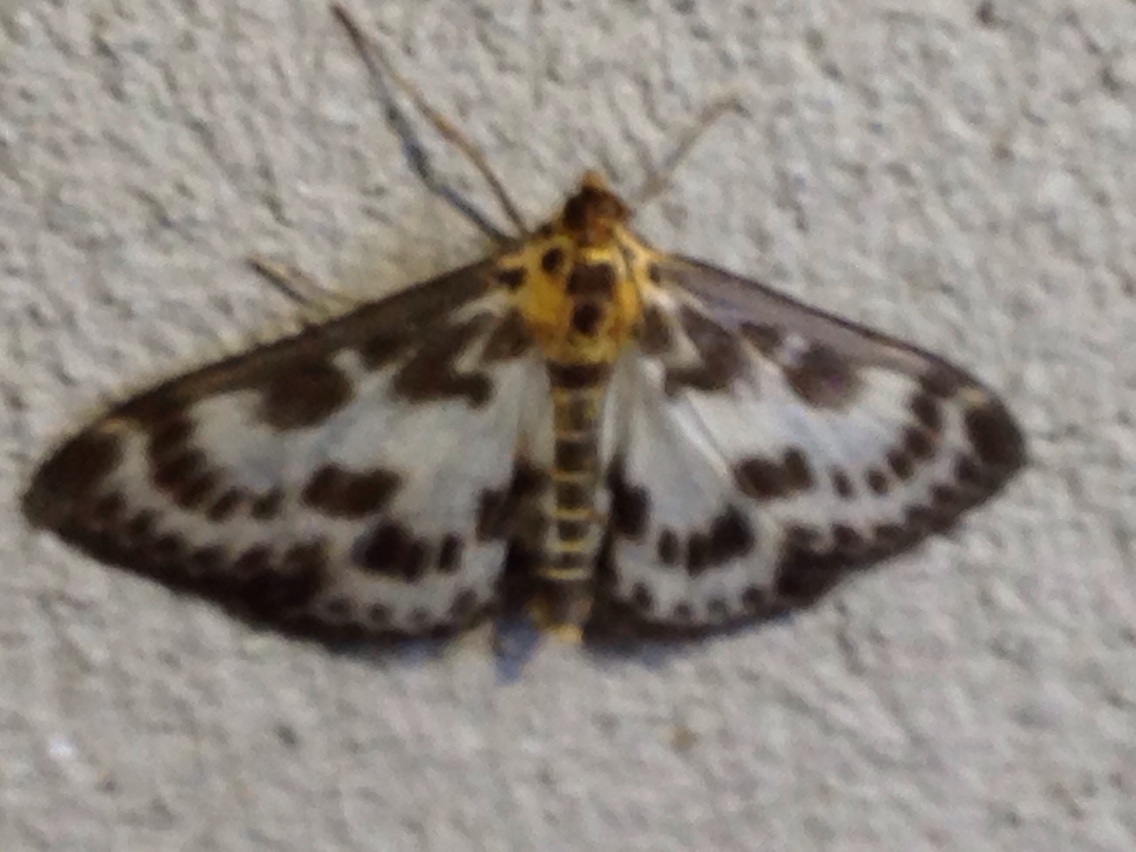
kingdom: Animalia
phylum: Arthropoda
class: Insecta
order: Lepidoptera
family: Crambidae
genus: Anania
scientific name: Anania hortulata
